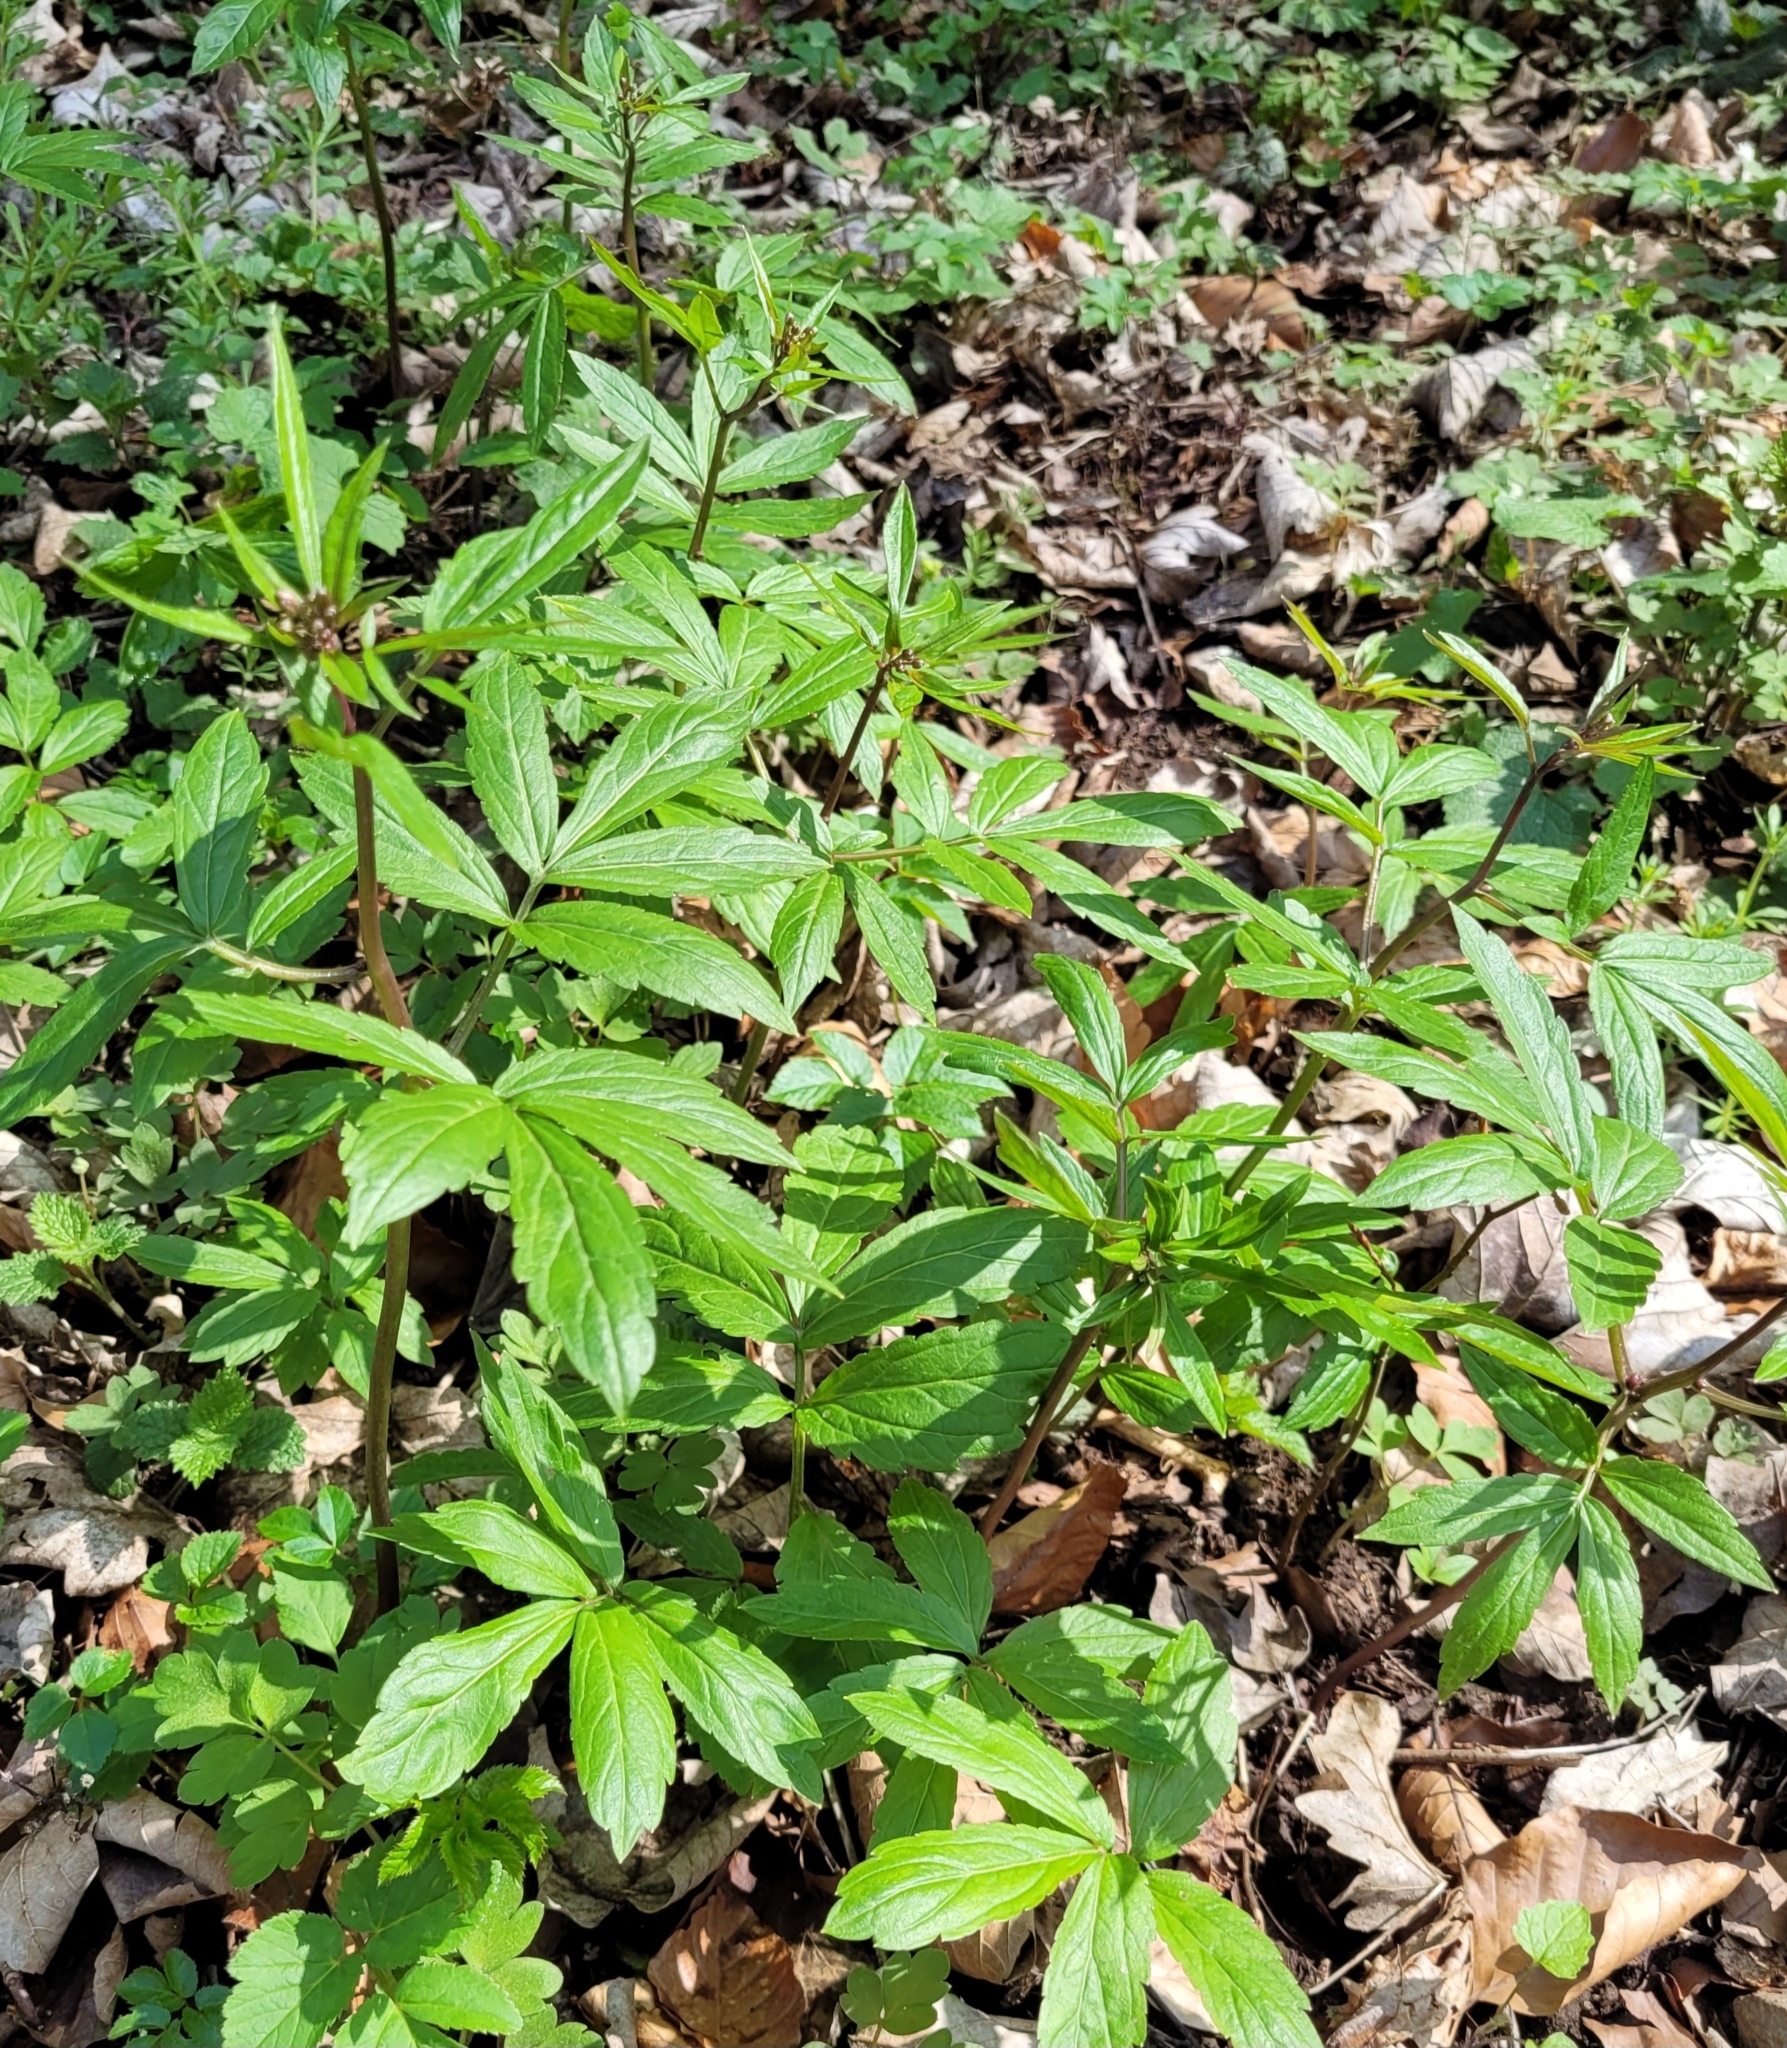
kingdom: Plantae
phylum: Tracheophyta
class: Magnoliopsida
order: Brassicales
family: Brassicaceae
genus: Cardamine
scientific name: Cardamine bulbifera
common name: Coralroot bittercress
